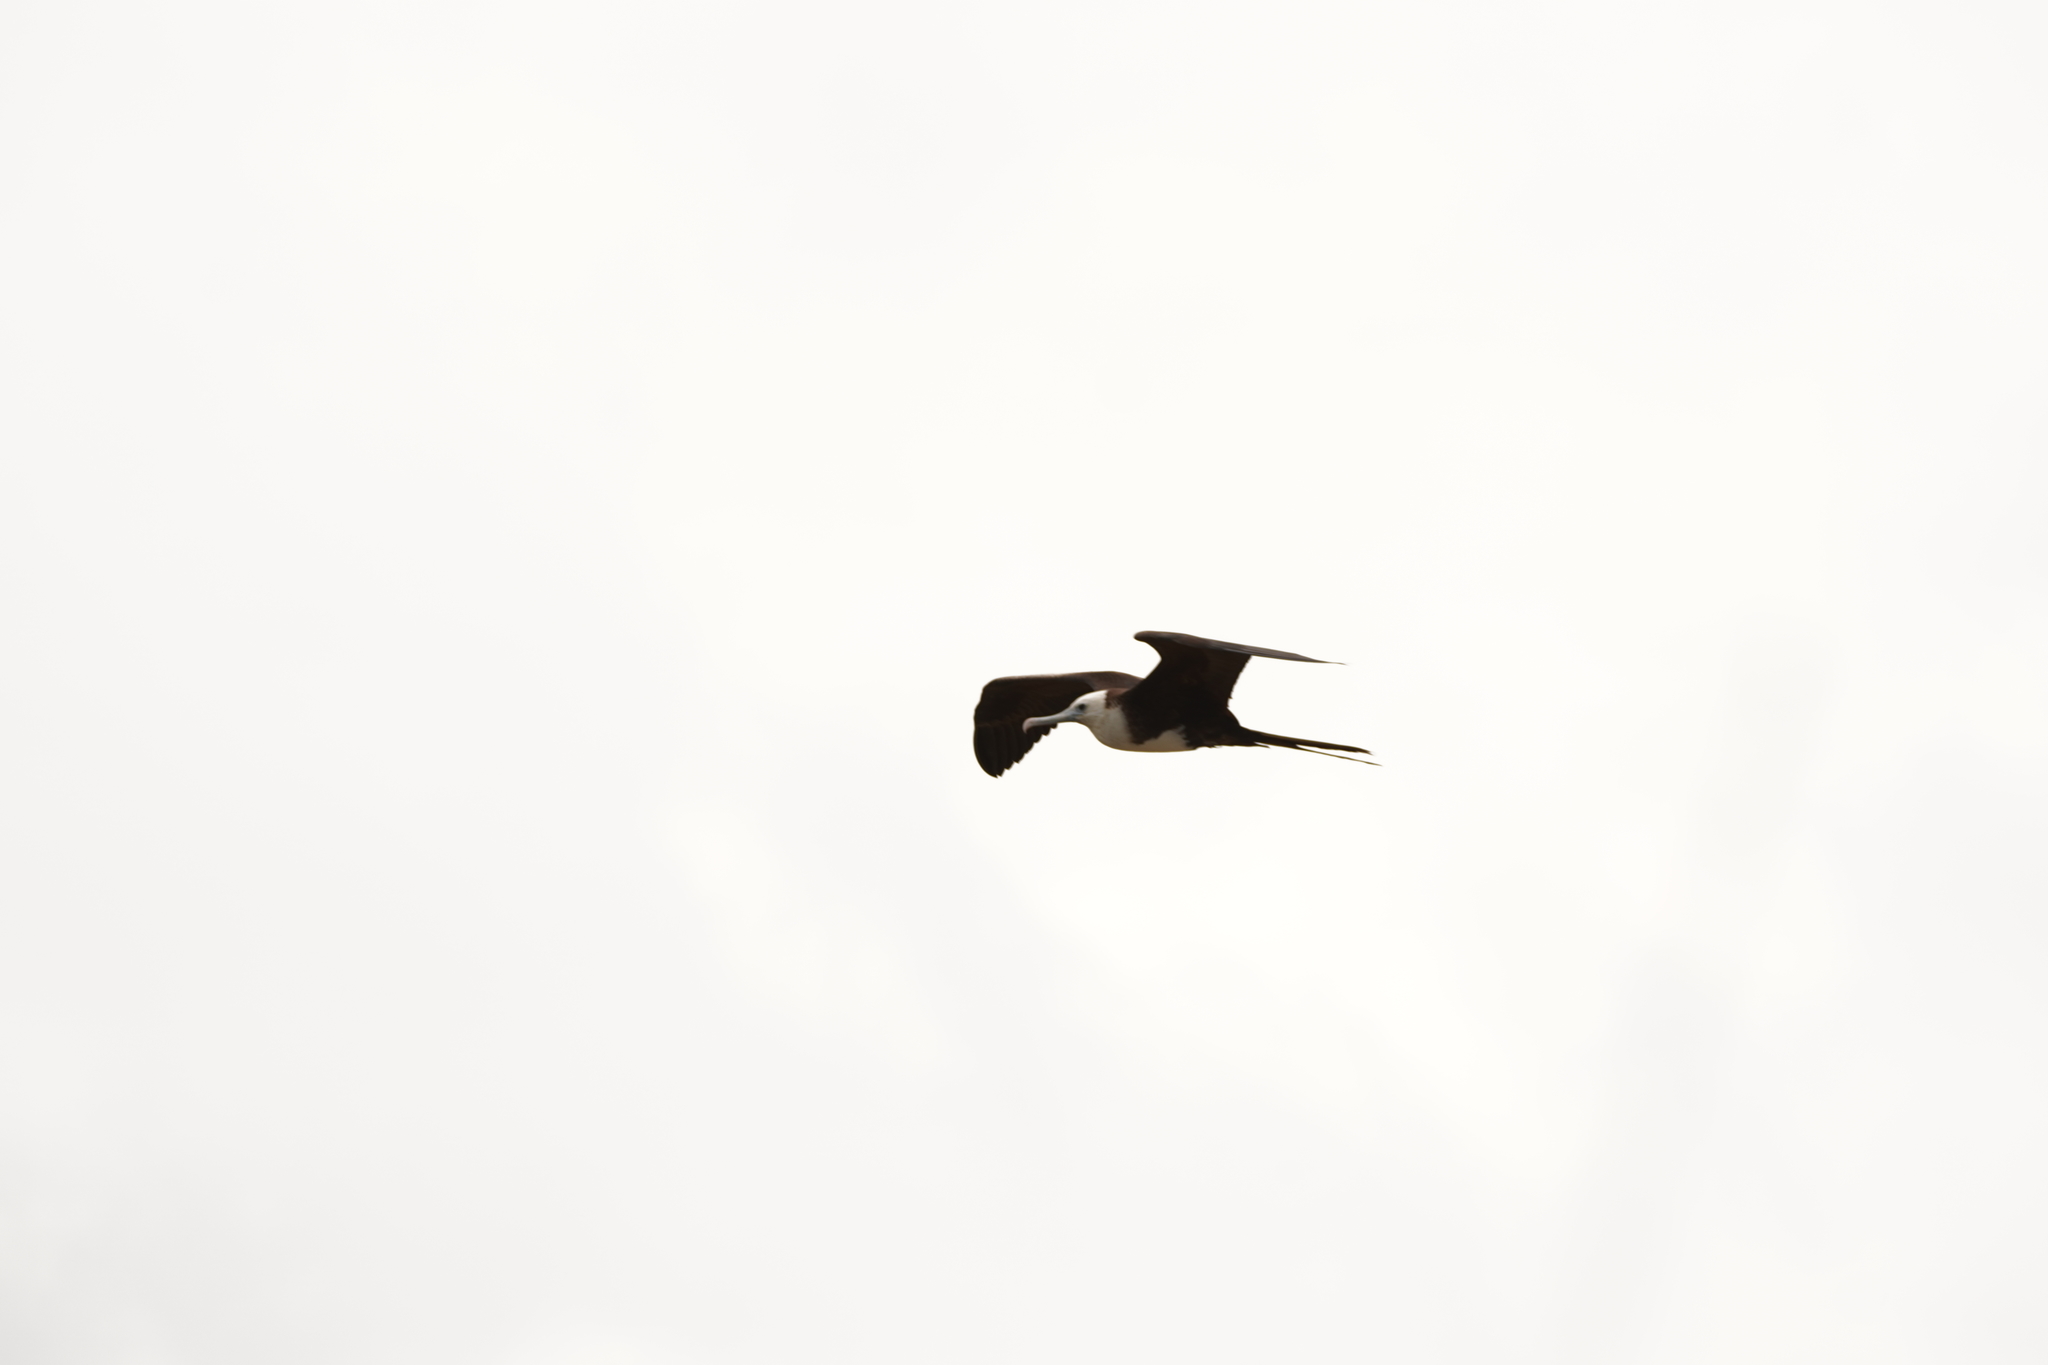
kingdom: Animalia
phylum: Chordata
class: Aves
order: Suliformes
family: Fregatidae
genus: Fregata
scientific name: Fregata magnificens
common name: Magnificent frigatebird
